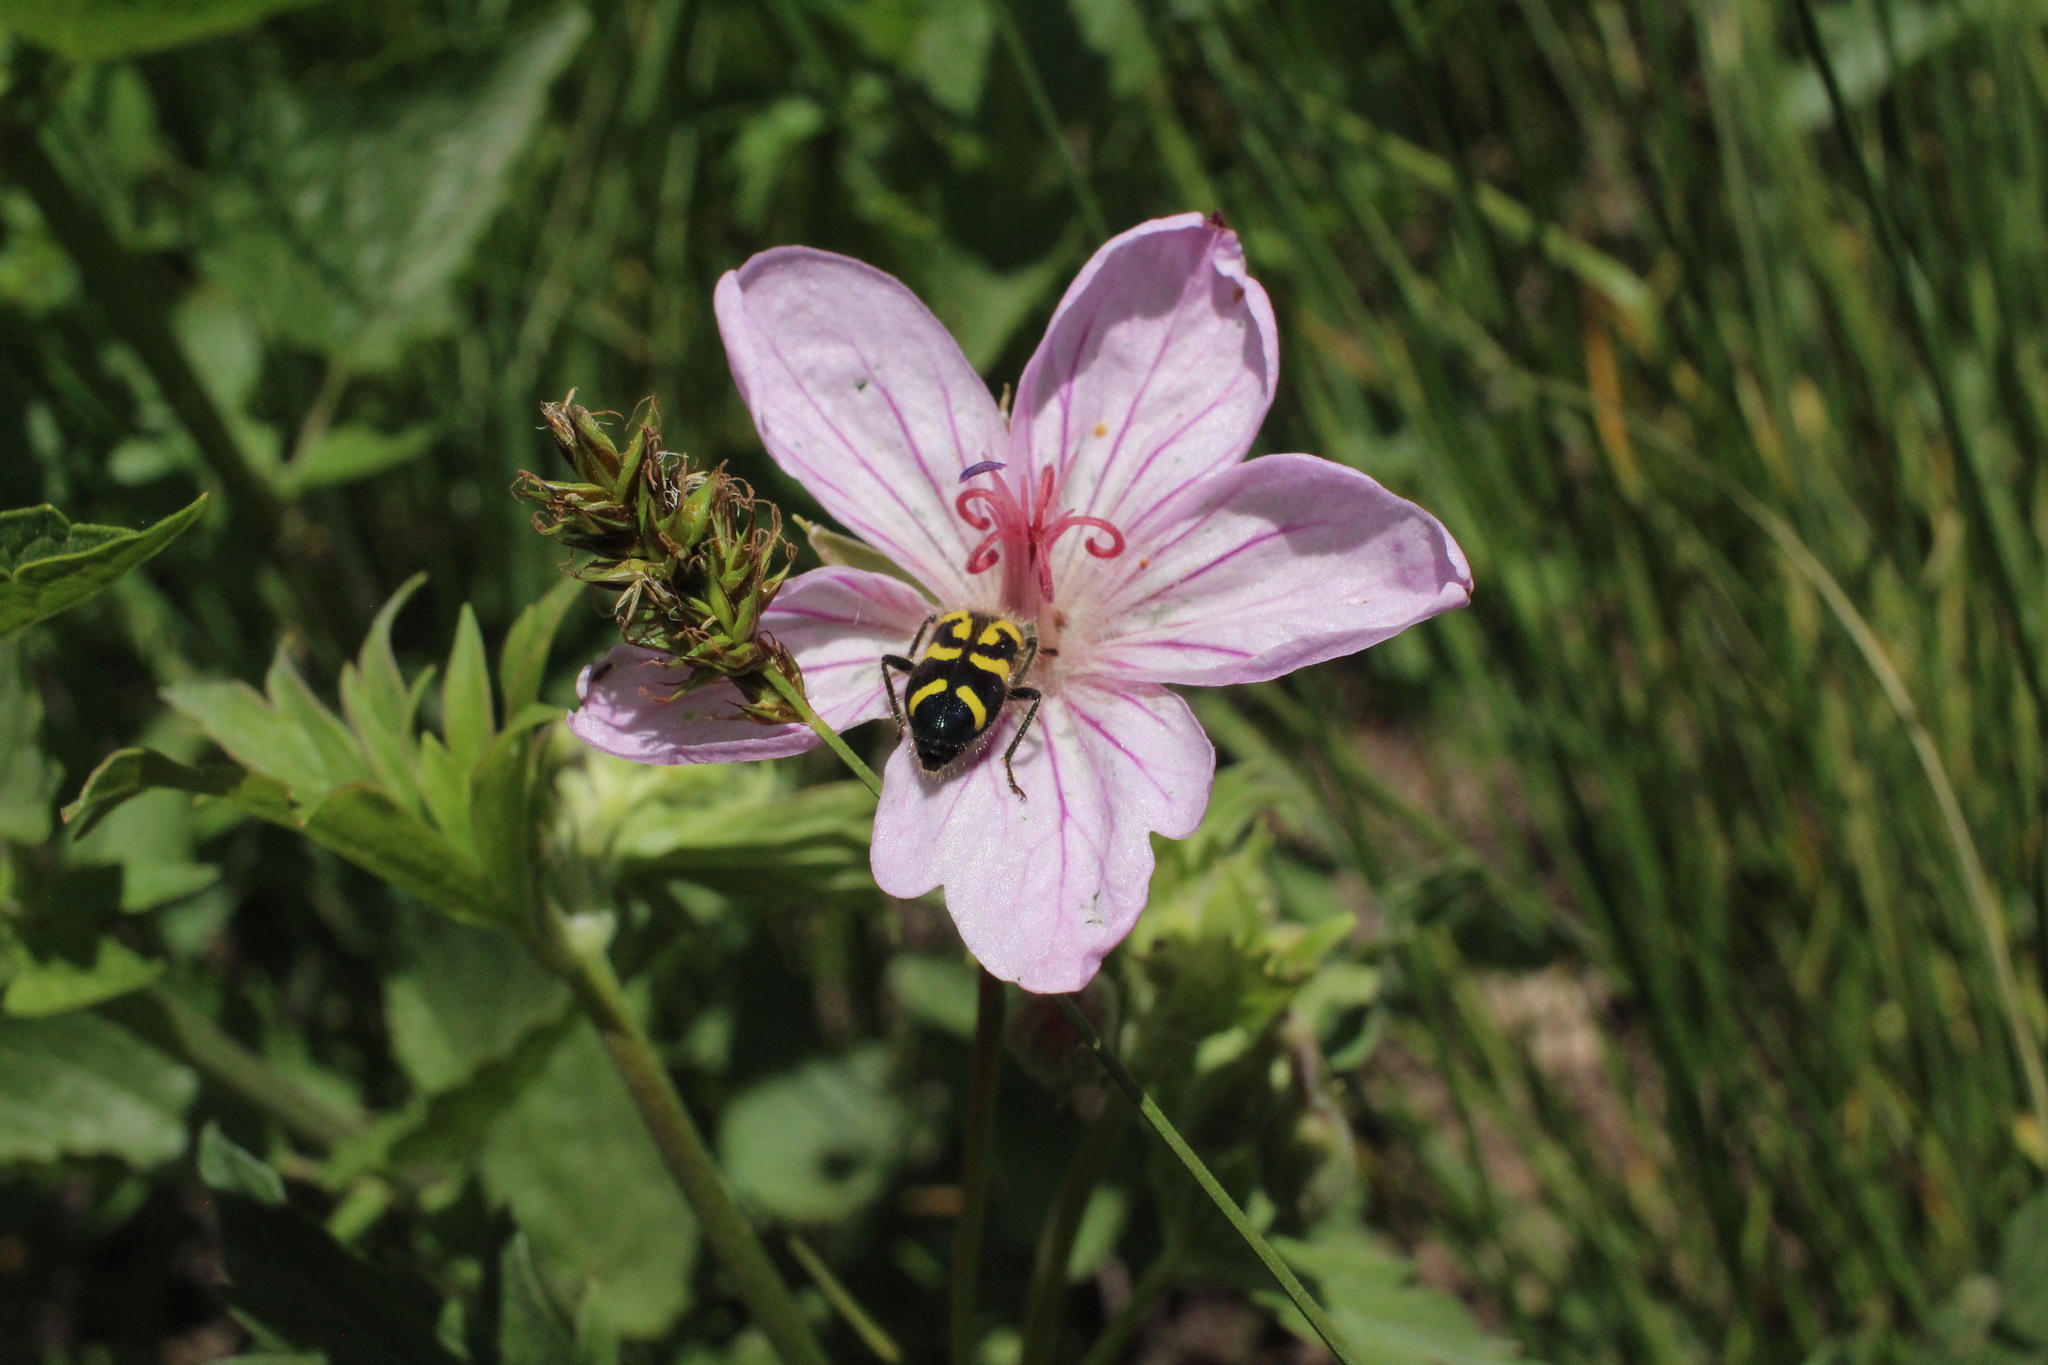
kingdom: Animalia
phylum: Arthropoda
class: Insecta
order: Coleoptera
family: Cleridae
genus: Trichodes
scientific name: Trichodes ornatus
